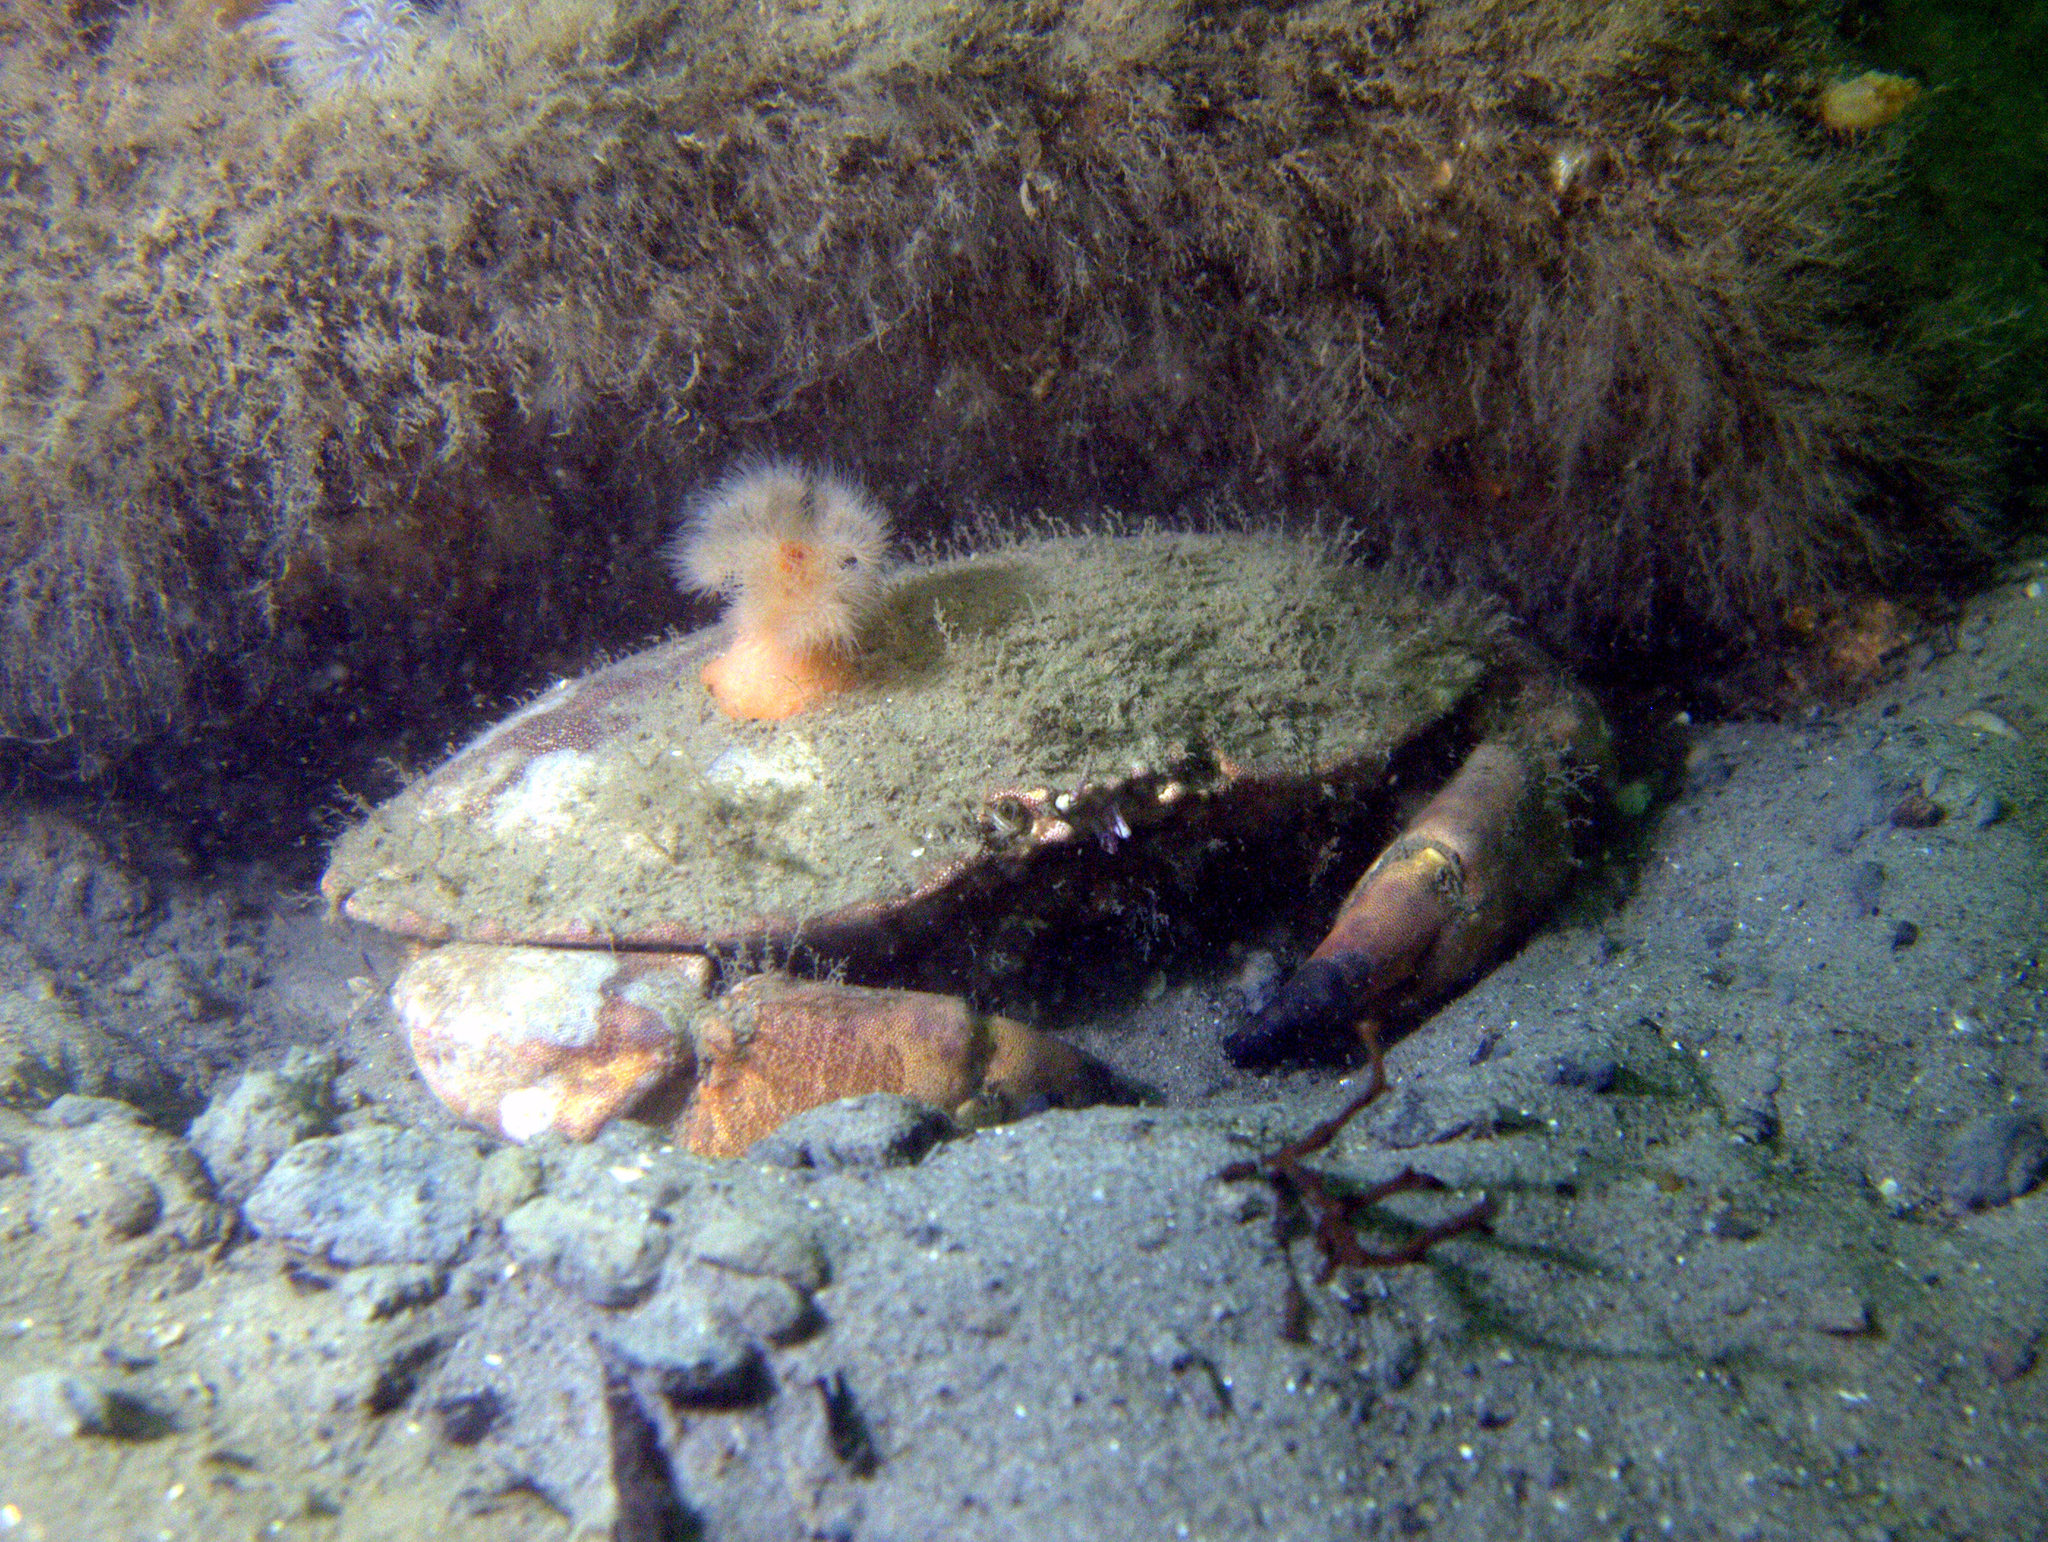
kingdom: Animalia
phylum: Arthropoda
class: Malacostraca
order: Decapoda
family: Cancridae
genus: Cancer
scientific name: Cancer pagurus
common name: Edible crab
